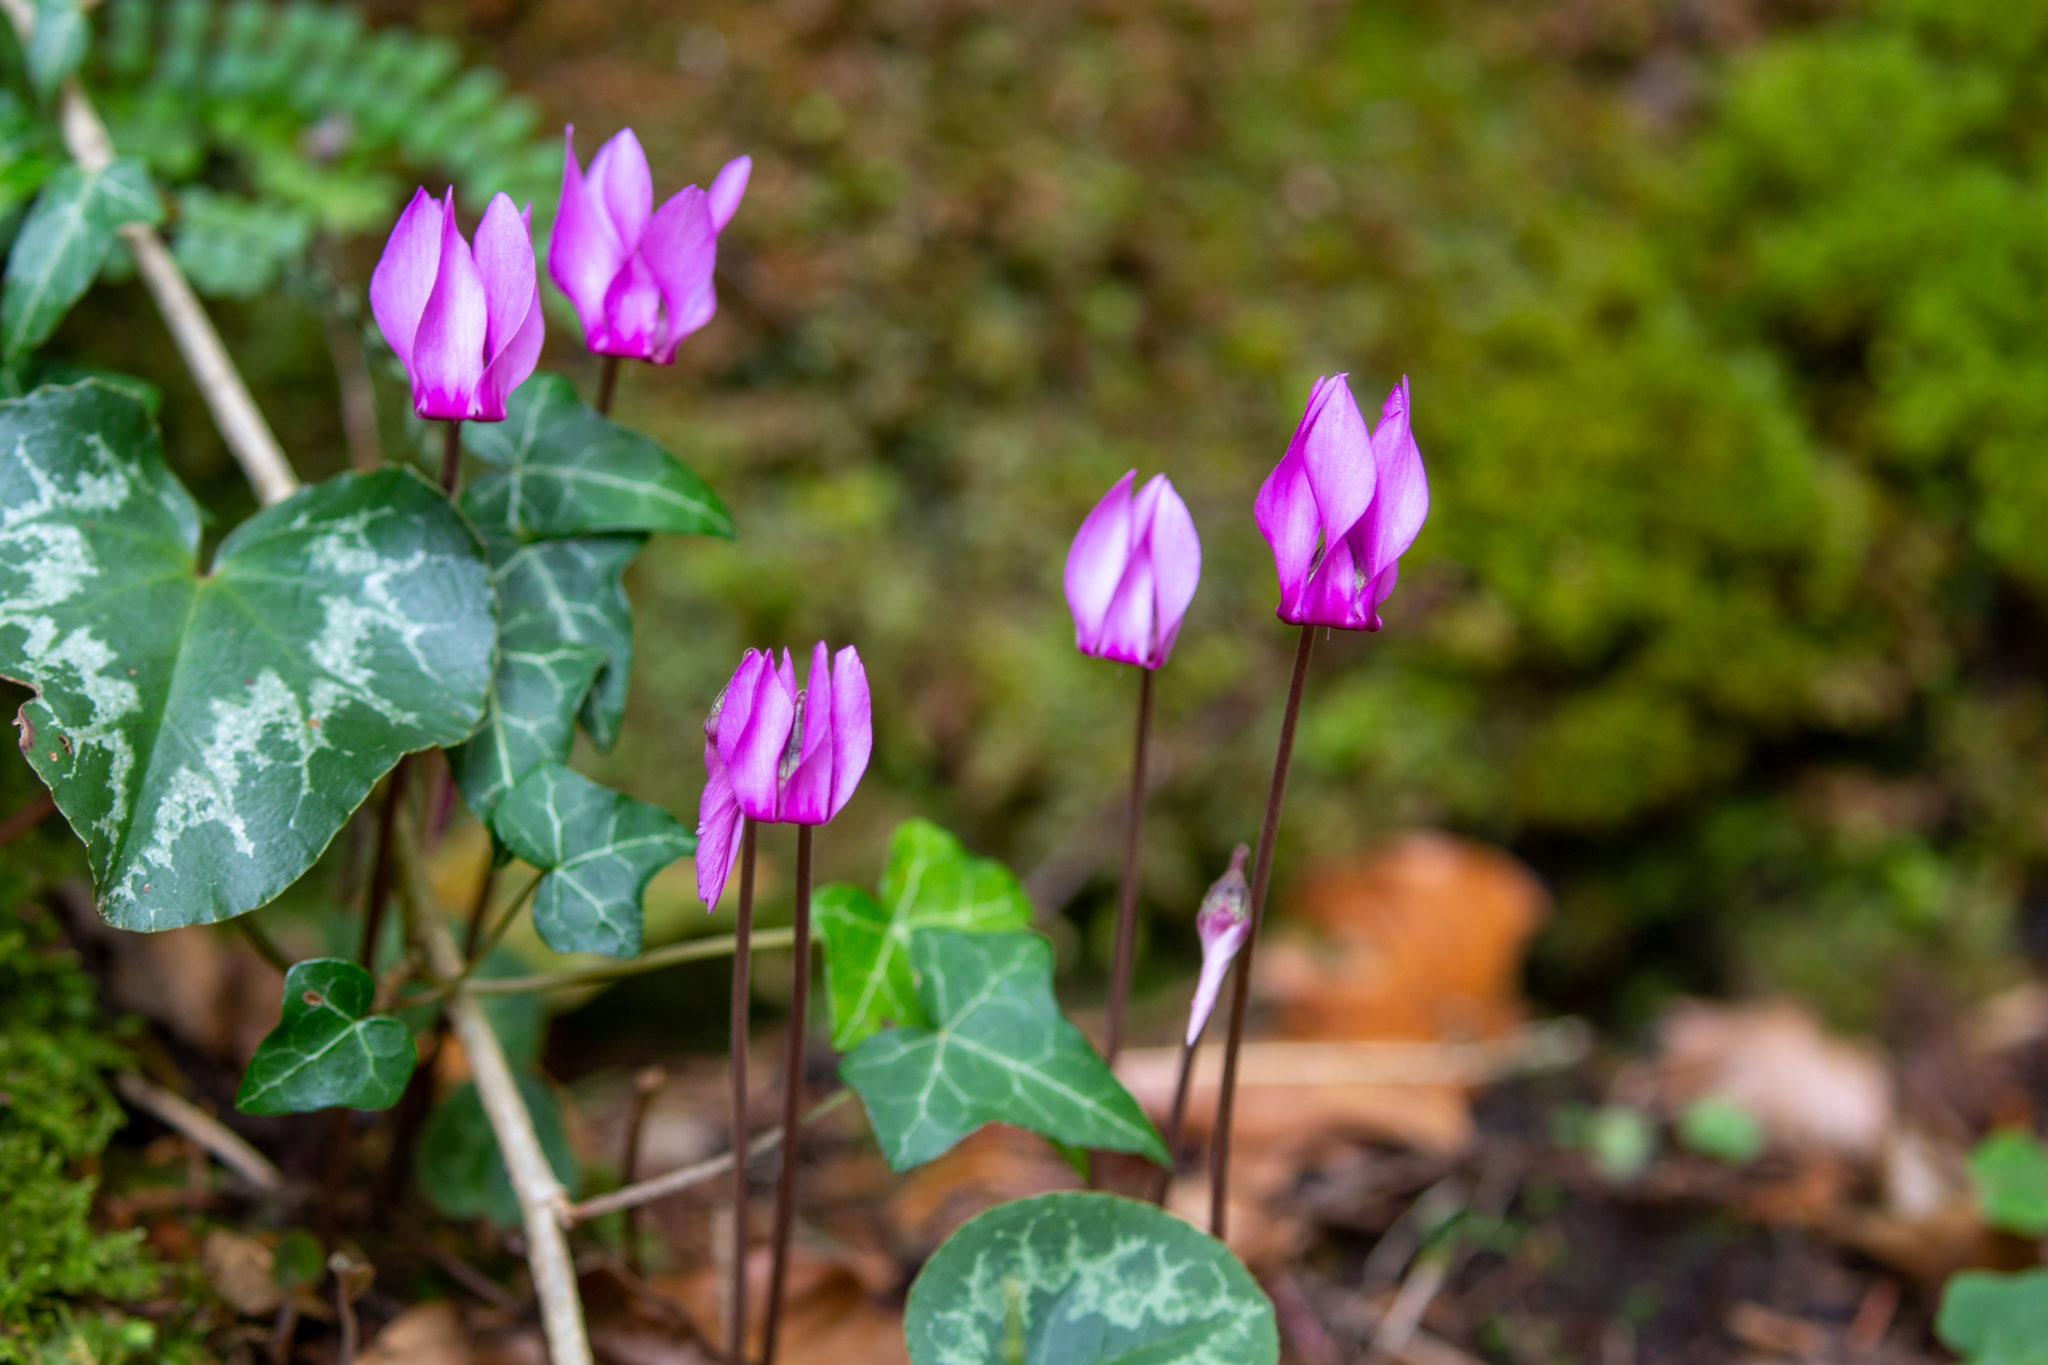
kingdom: Plantae
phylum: Tracheophyta
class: Magnoliopsida
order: Ericales
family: Primulaceae
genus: Cyclamen
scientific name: Cyclamen purpurascens
